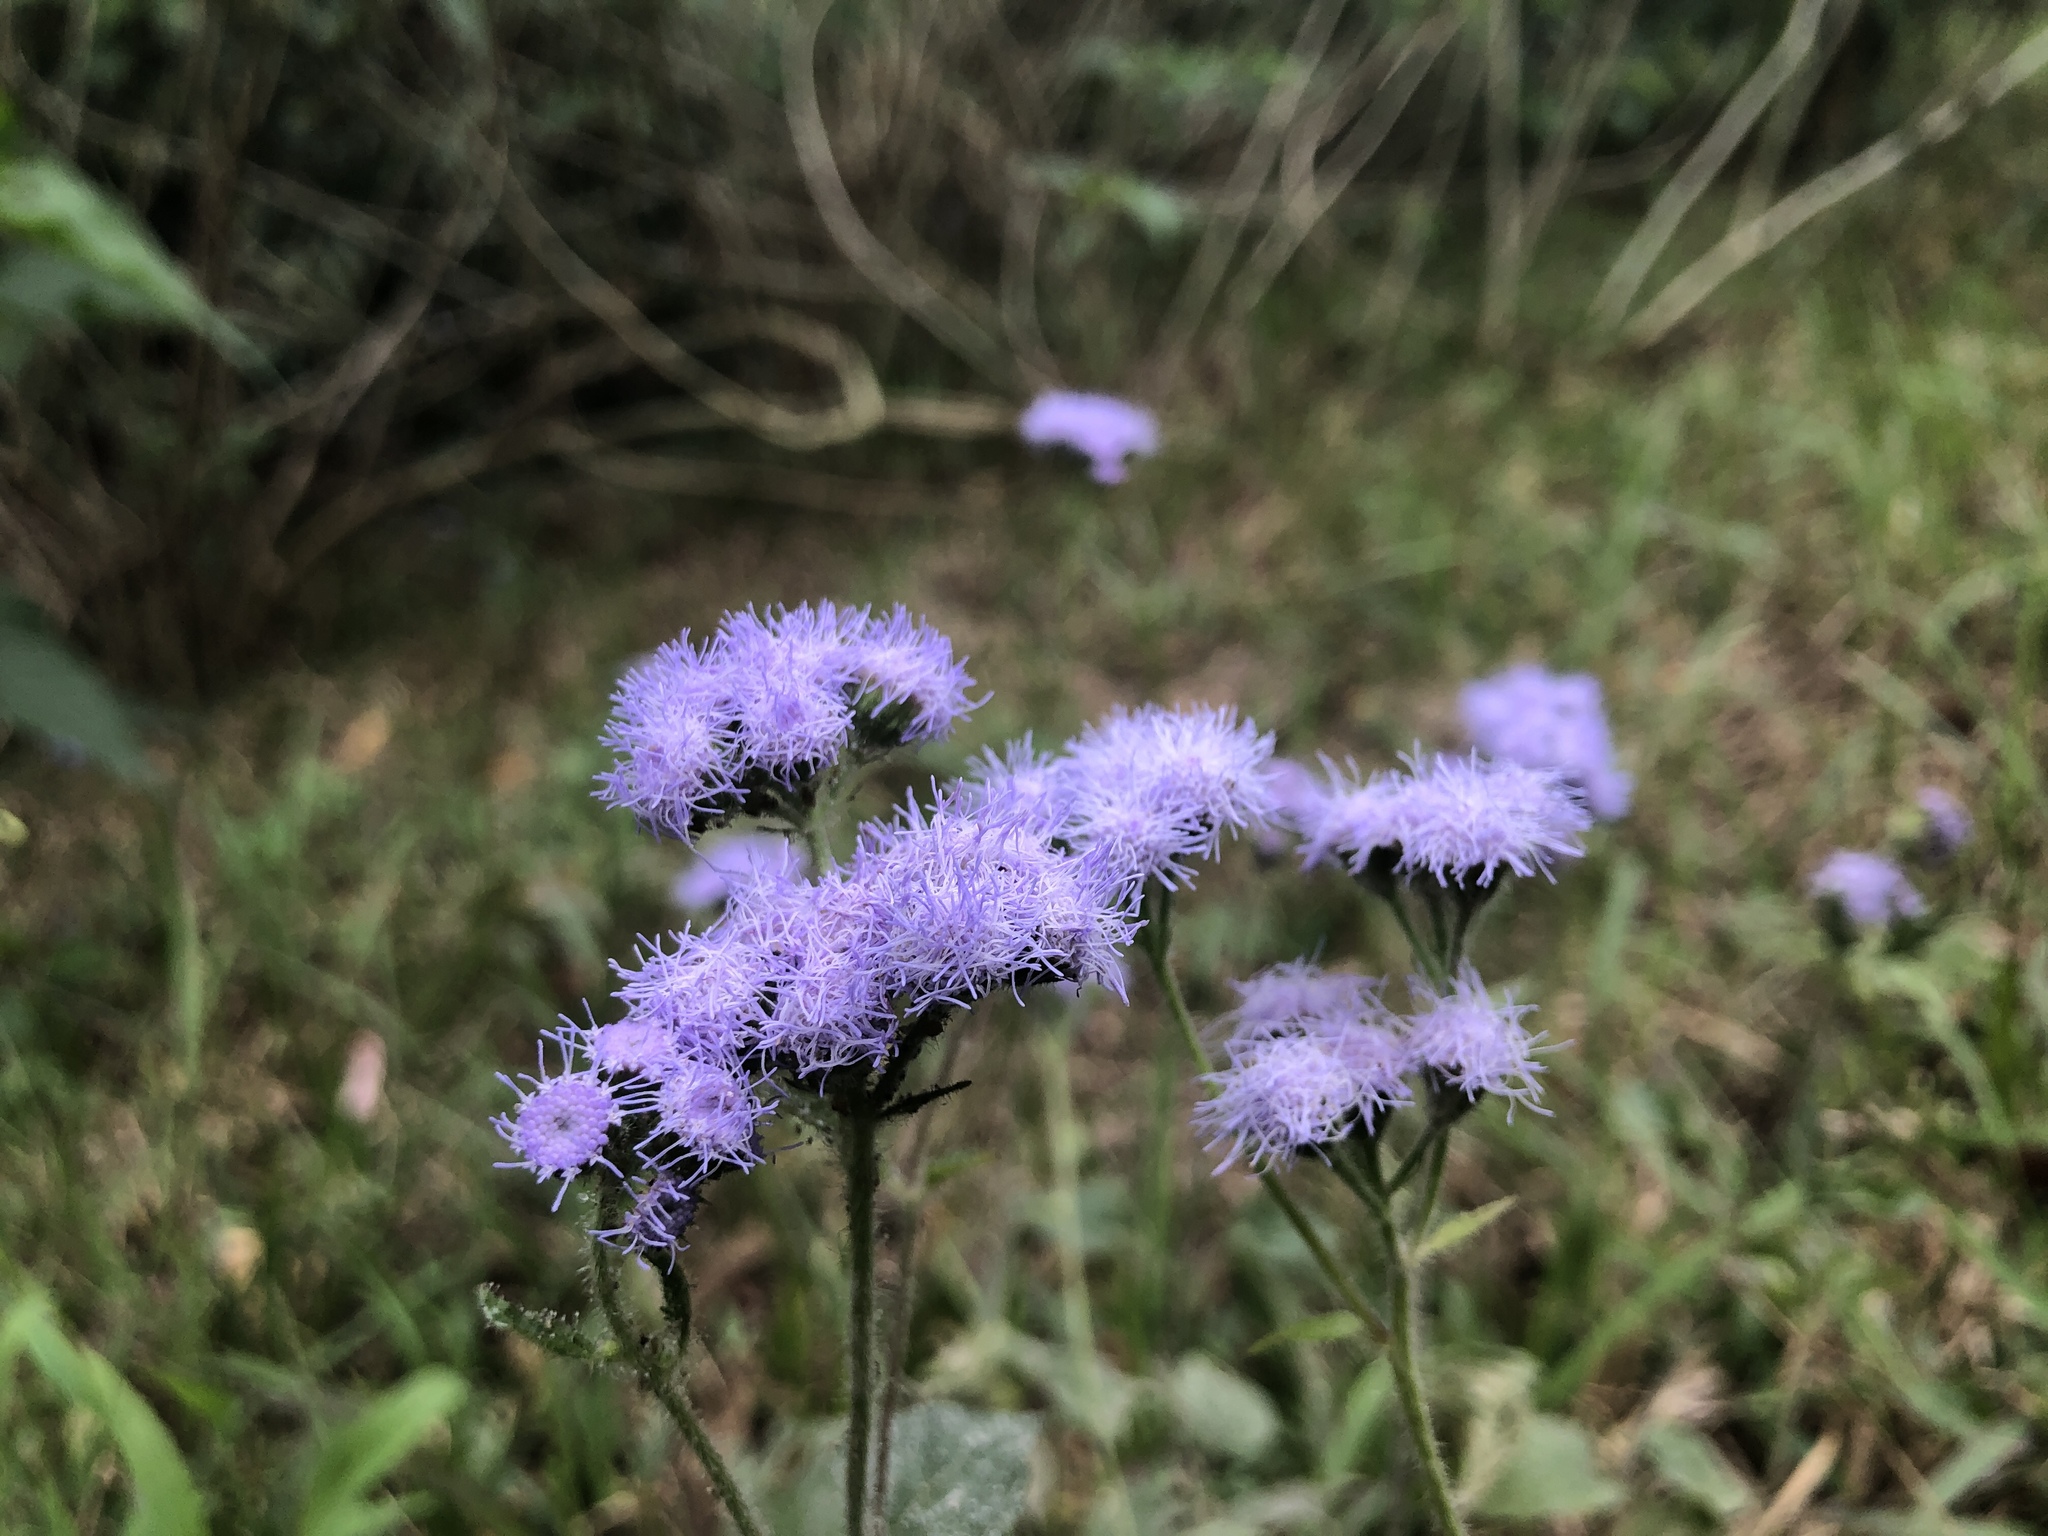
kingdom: Plantae
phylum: Tracheophyta
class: Magnoliopsida
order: Asterales
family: Asteraceae
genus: Ageratum
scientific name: Ageratum houstonianum
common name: Bluemink
